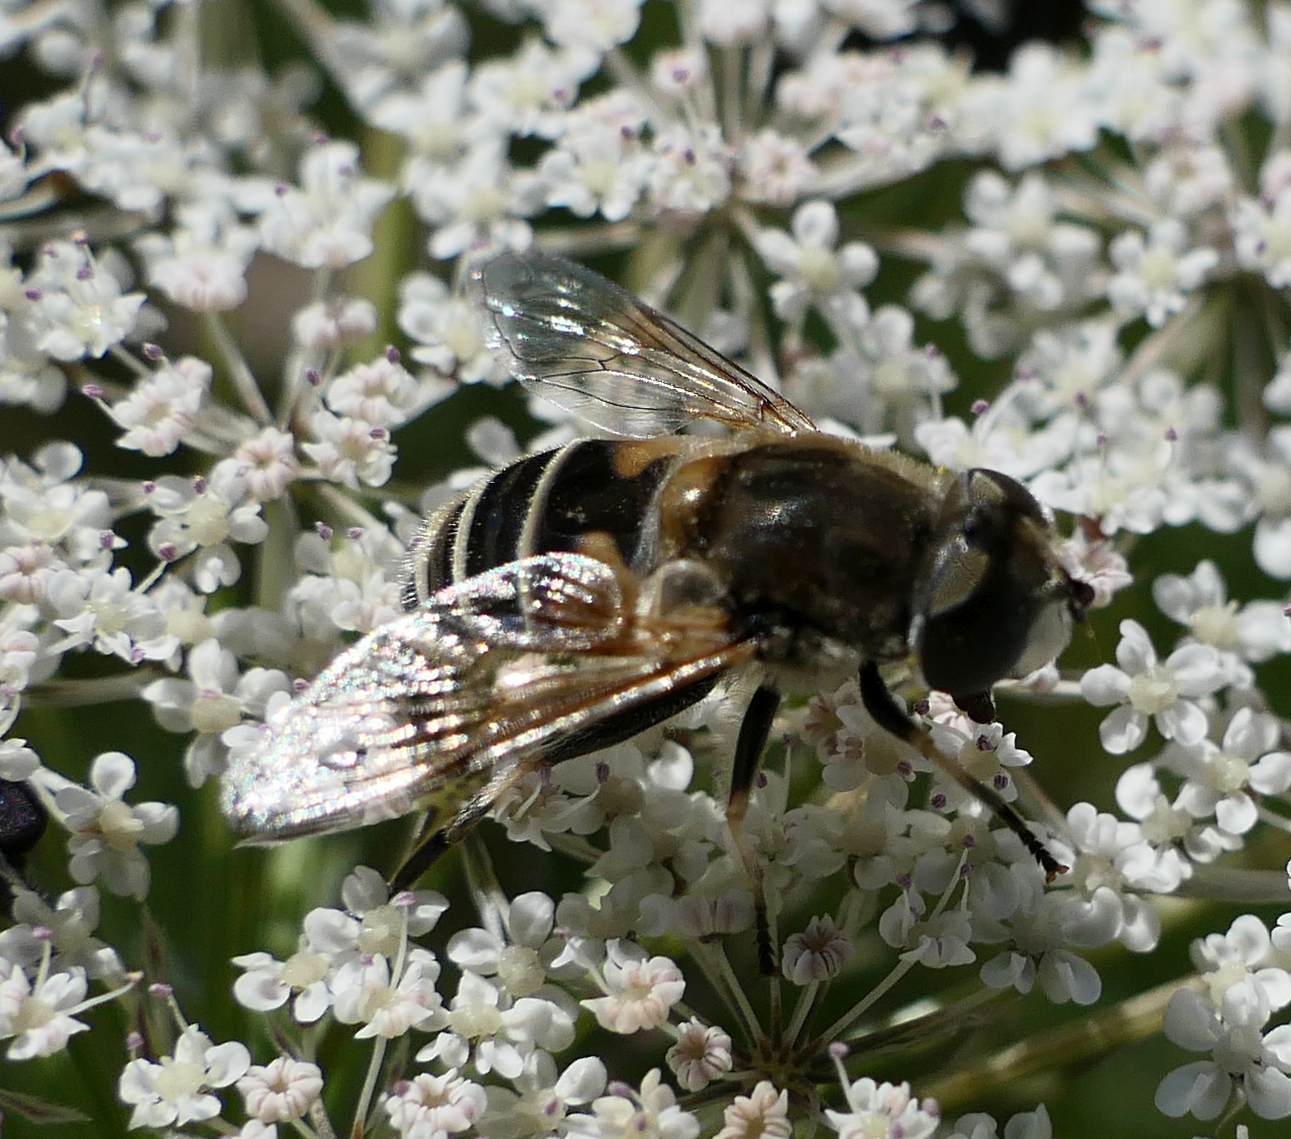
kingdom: Animalia
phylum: Arthropoda
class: Insecta
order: Diptera
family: Syrphidae
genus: Eristalis
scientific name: Eristalis arbustorum
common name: Hover fly
